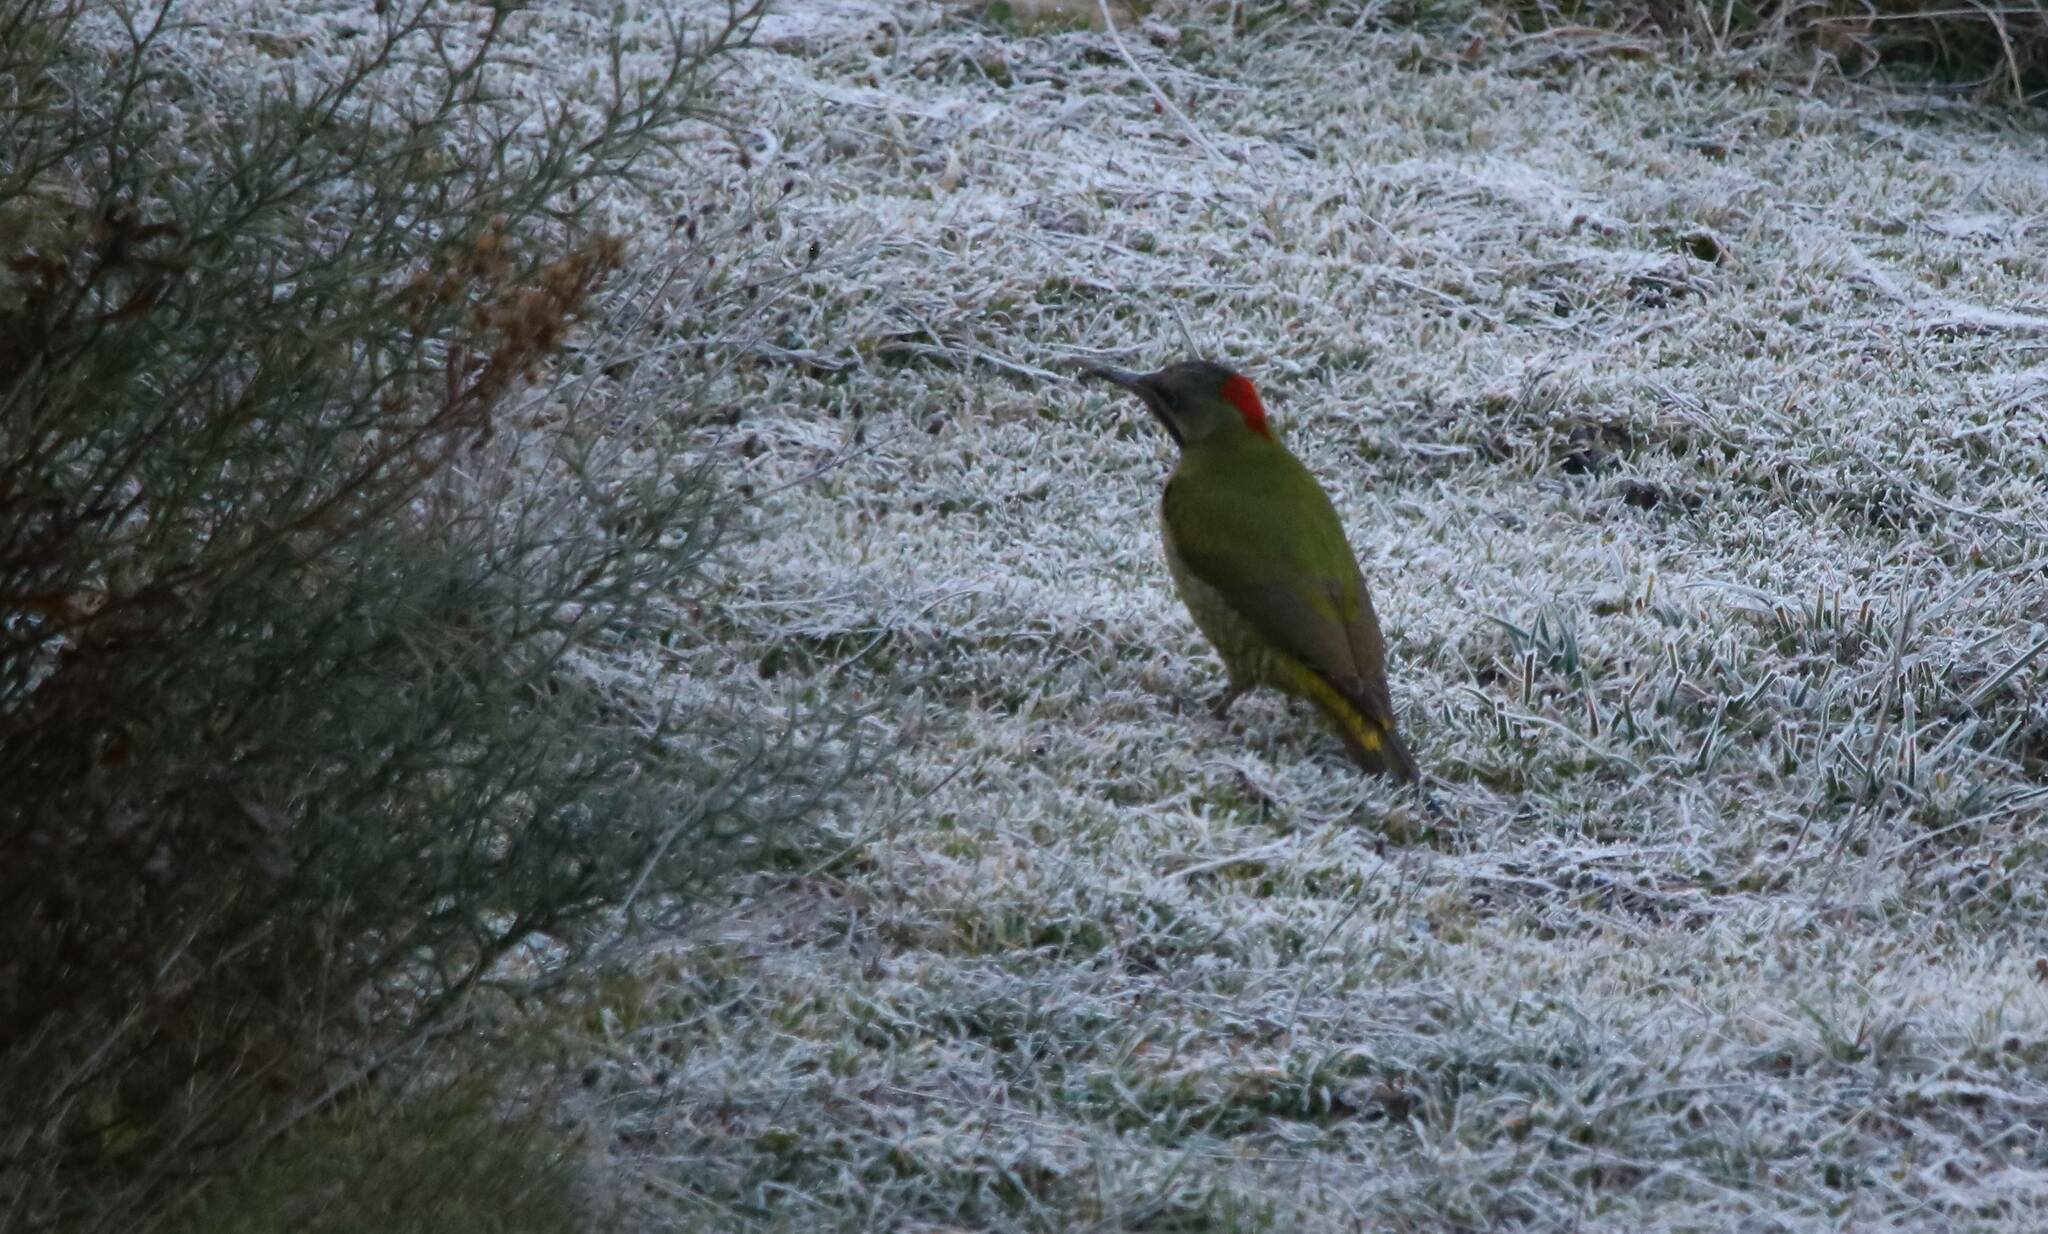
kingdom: Animalia
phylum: Chordata
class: Aves
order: Piciformes
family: Picidae
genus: Picus
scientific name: Picus vaillantii
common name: Levaillant's woodpecker
